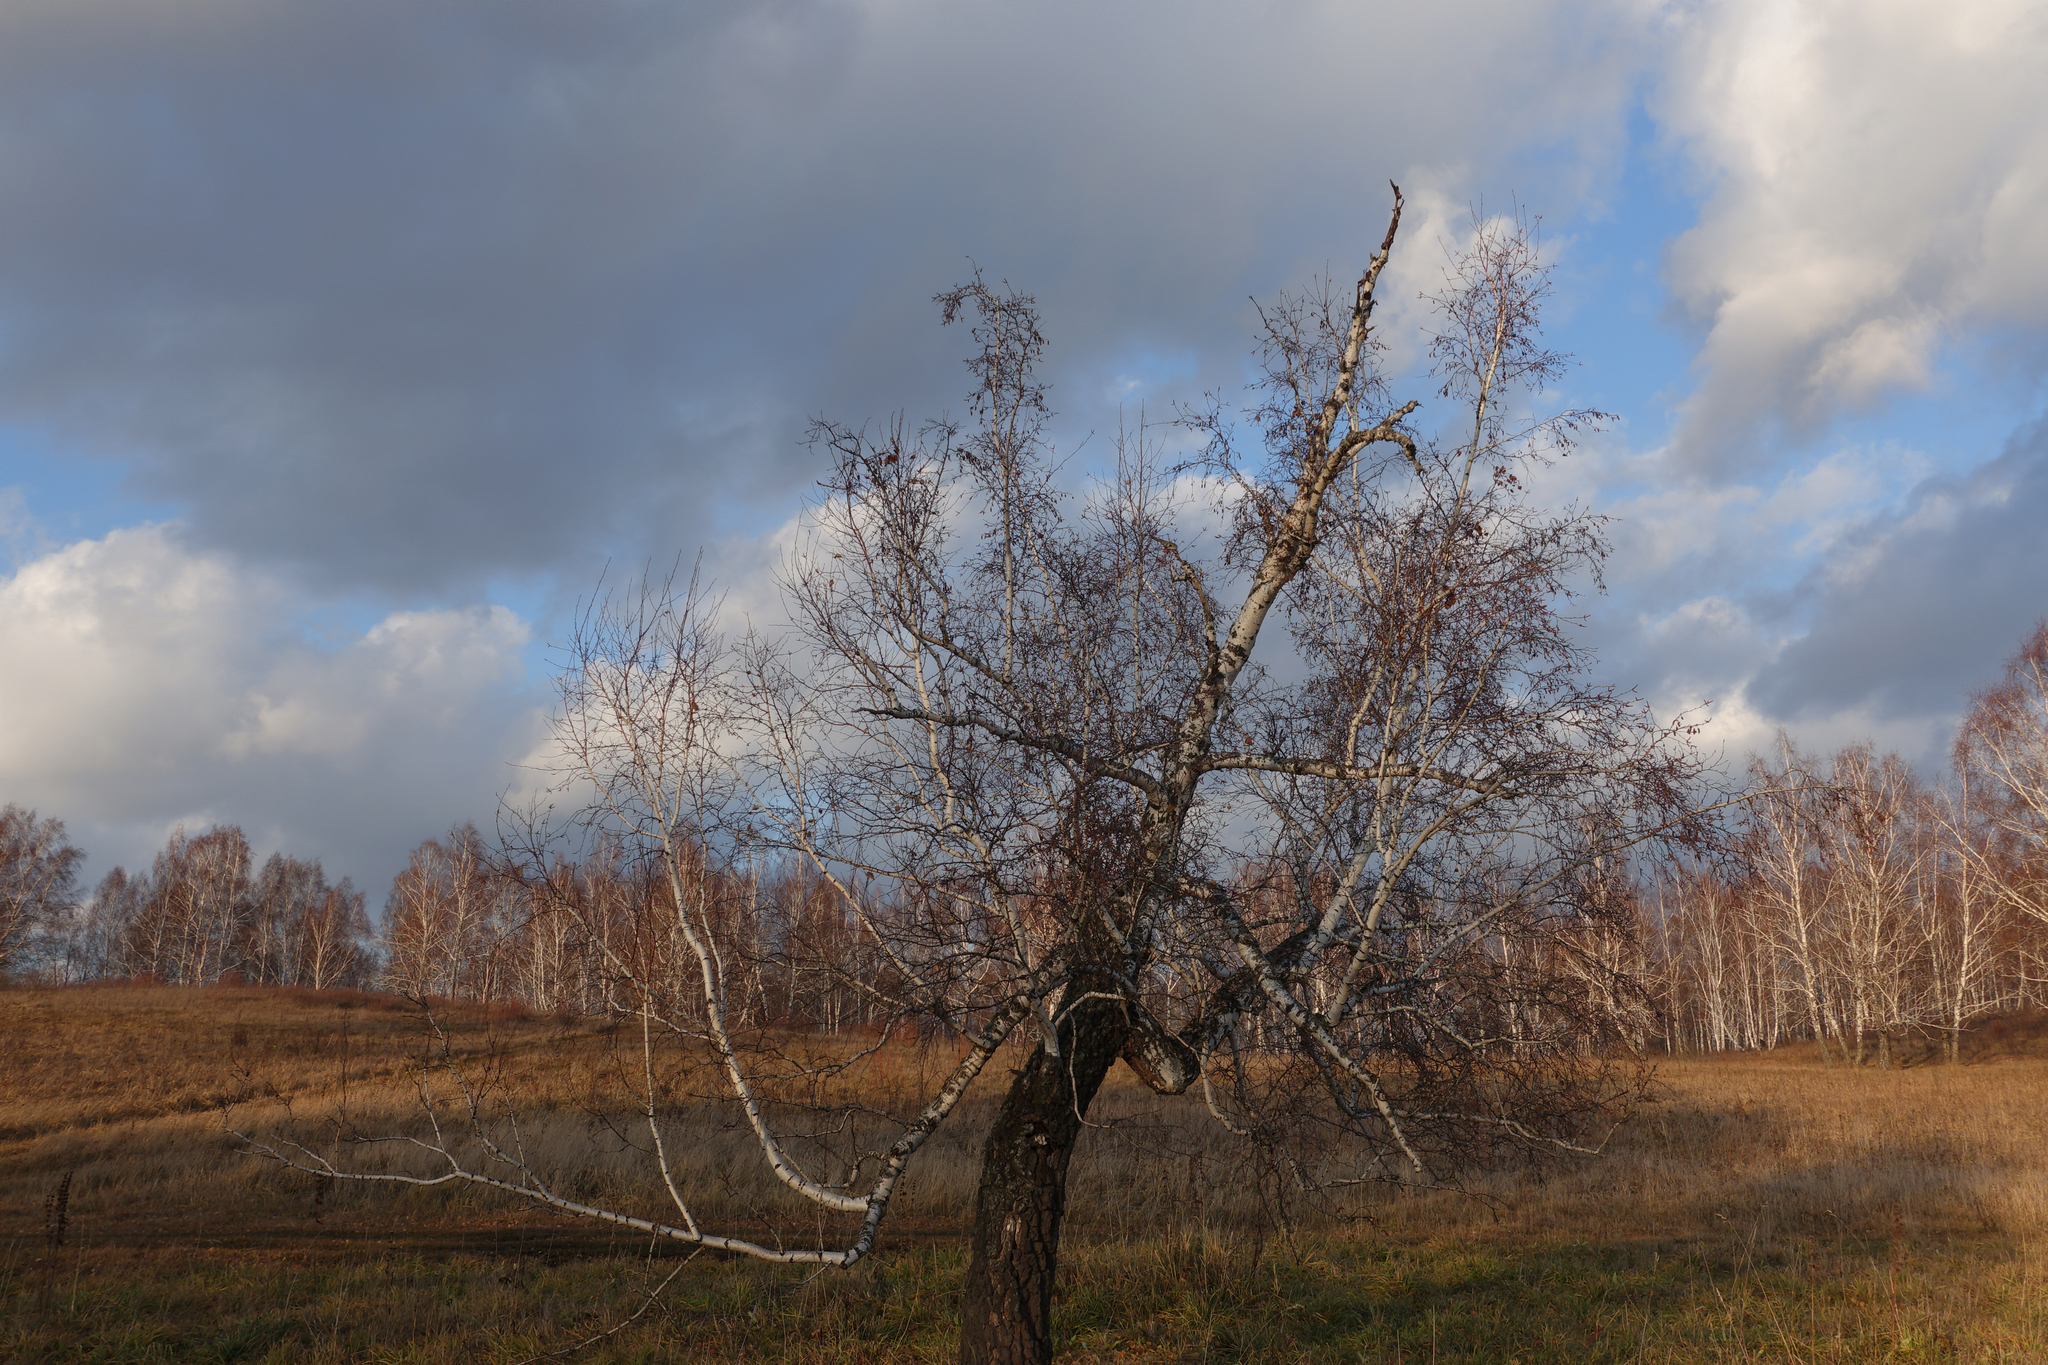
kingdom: Plantae
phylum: Tracheophyta
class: Magnoliopsida
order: Fagales
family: Betulaceae
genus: Betula
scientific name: Betula pendula
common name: Silver birch
